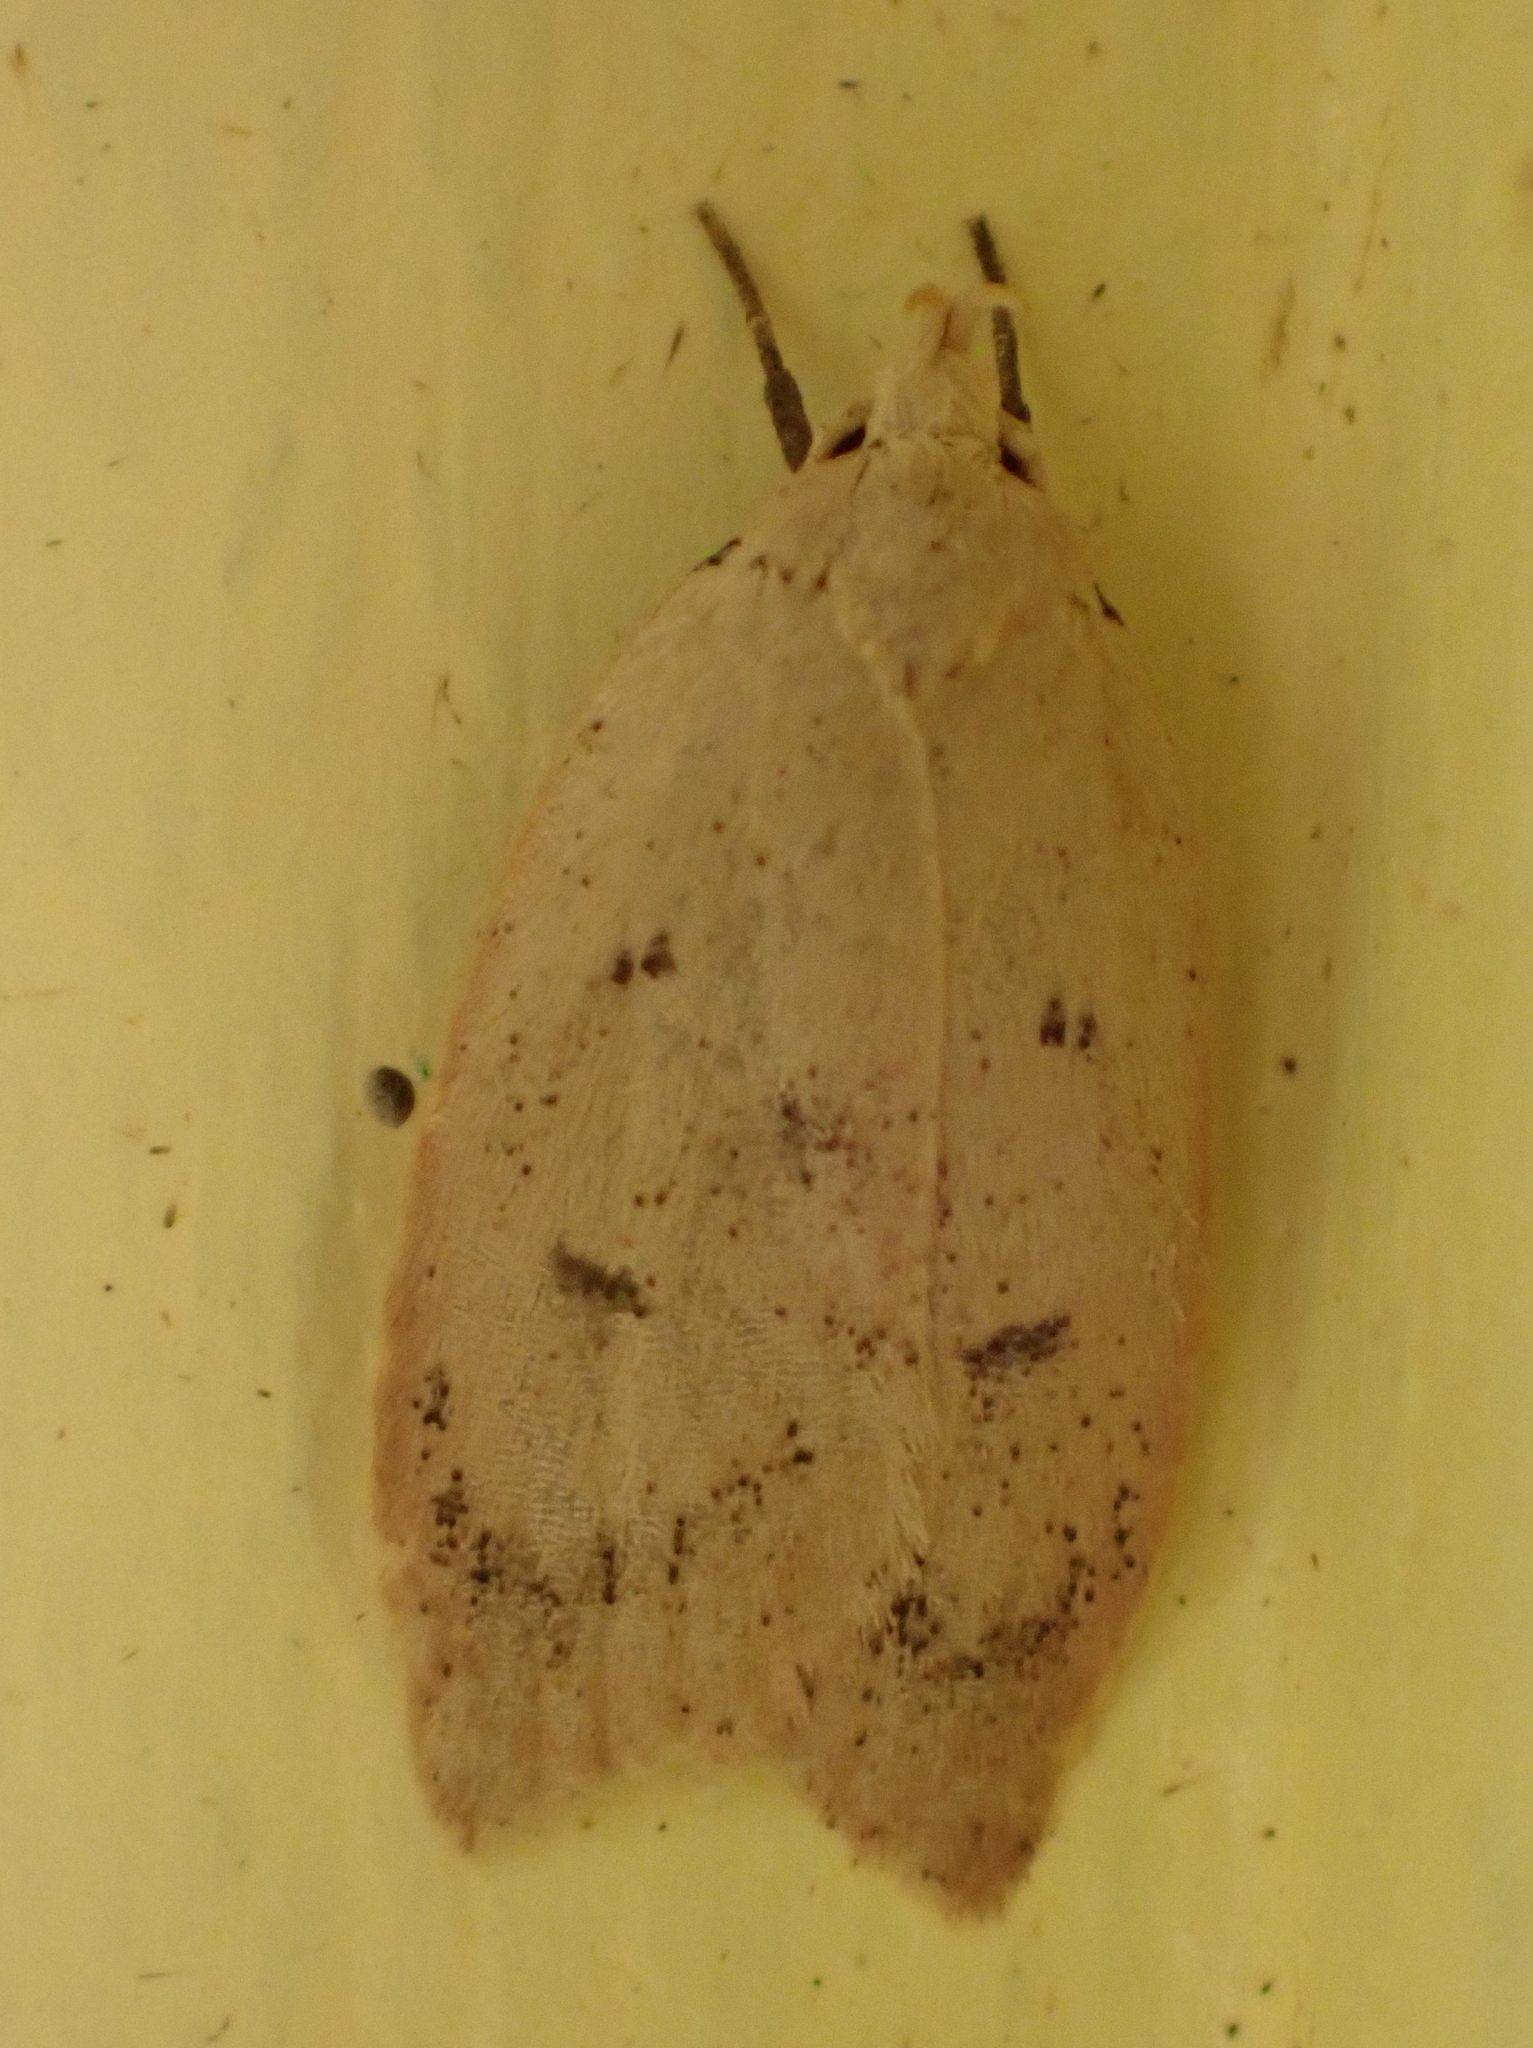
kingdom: Animalia
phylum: Arthropoda
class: Insecta
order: Lepidoptera
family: Peleopodidae
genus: Machimia
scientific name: Machimia tentoriferella
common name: Gold-striped leaftier moth
